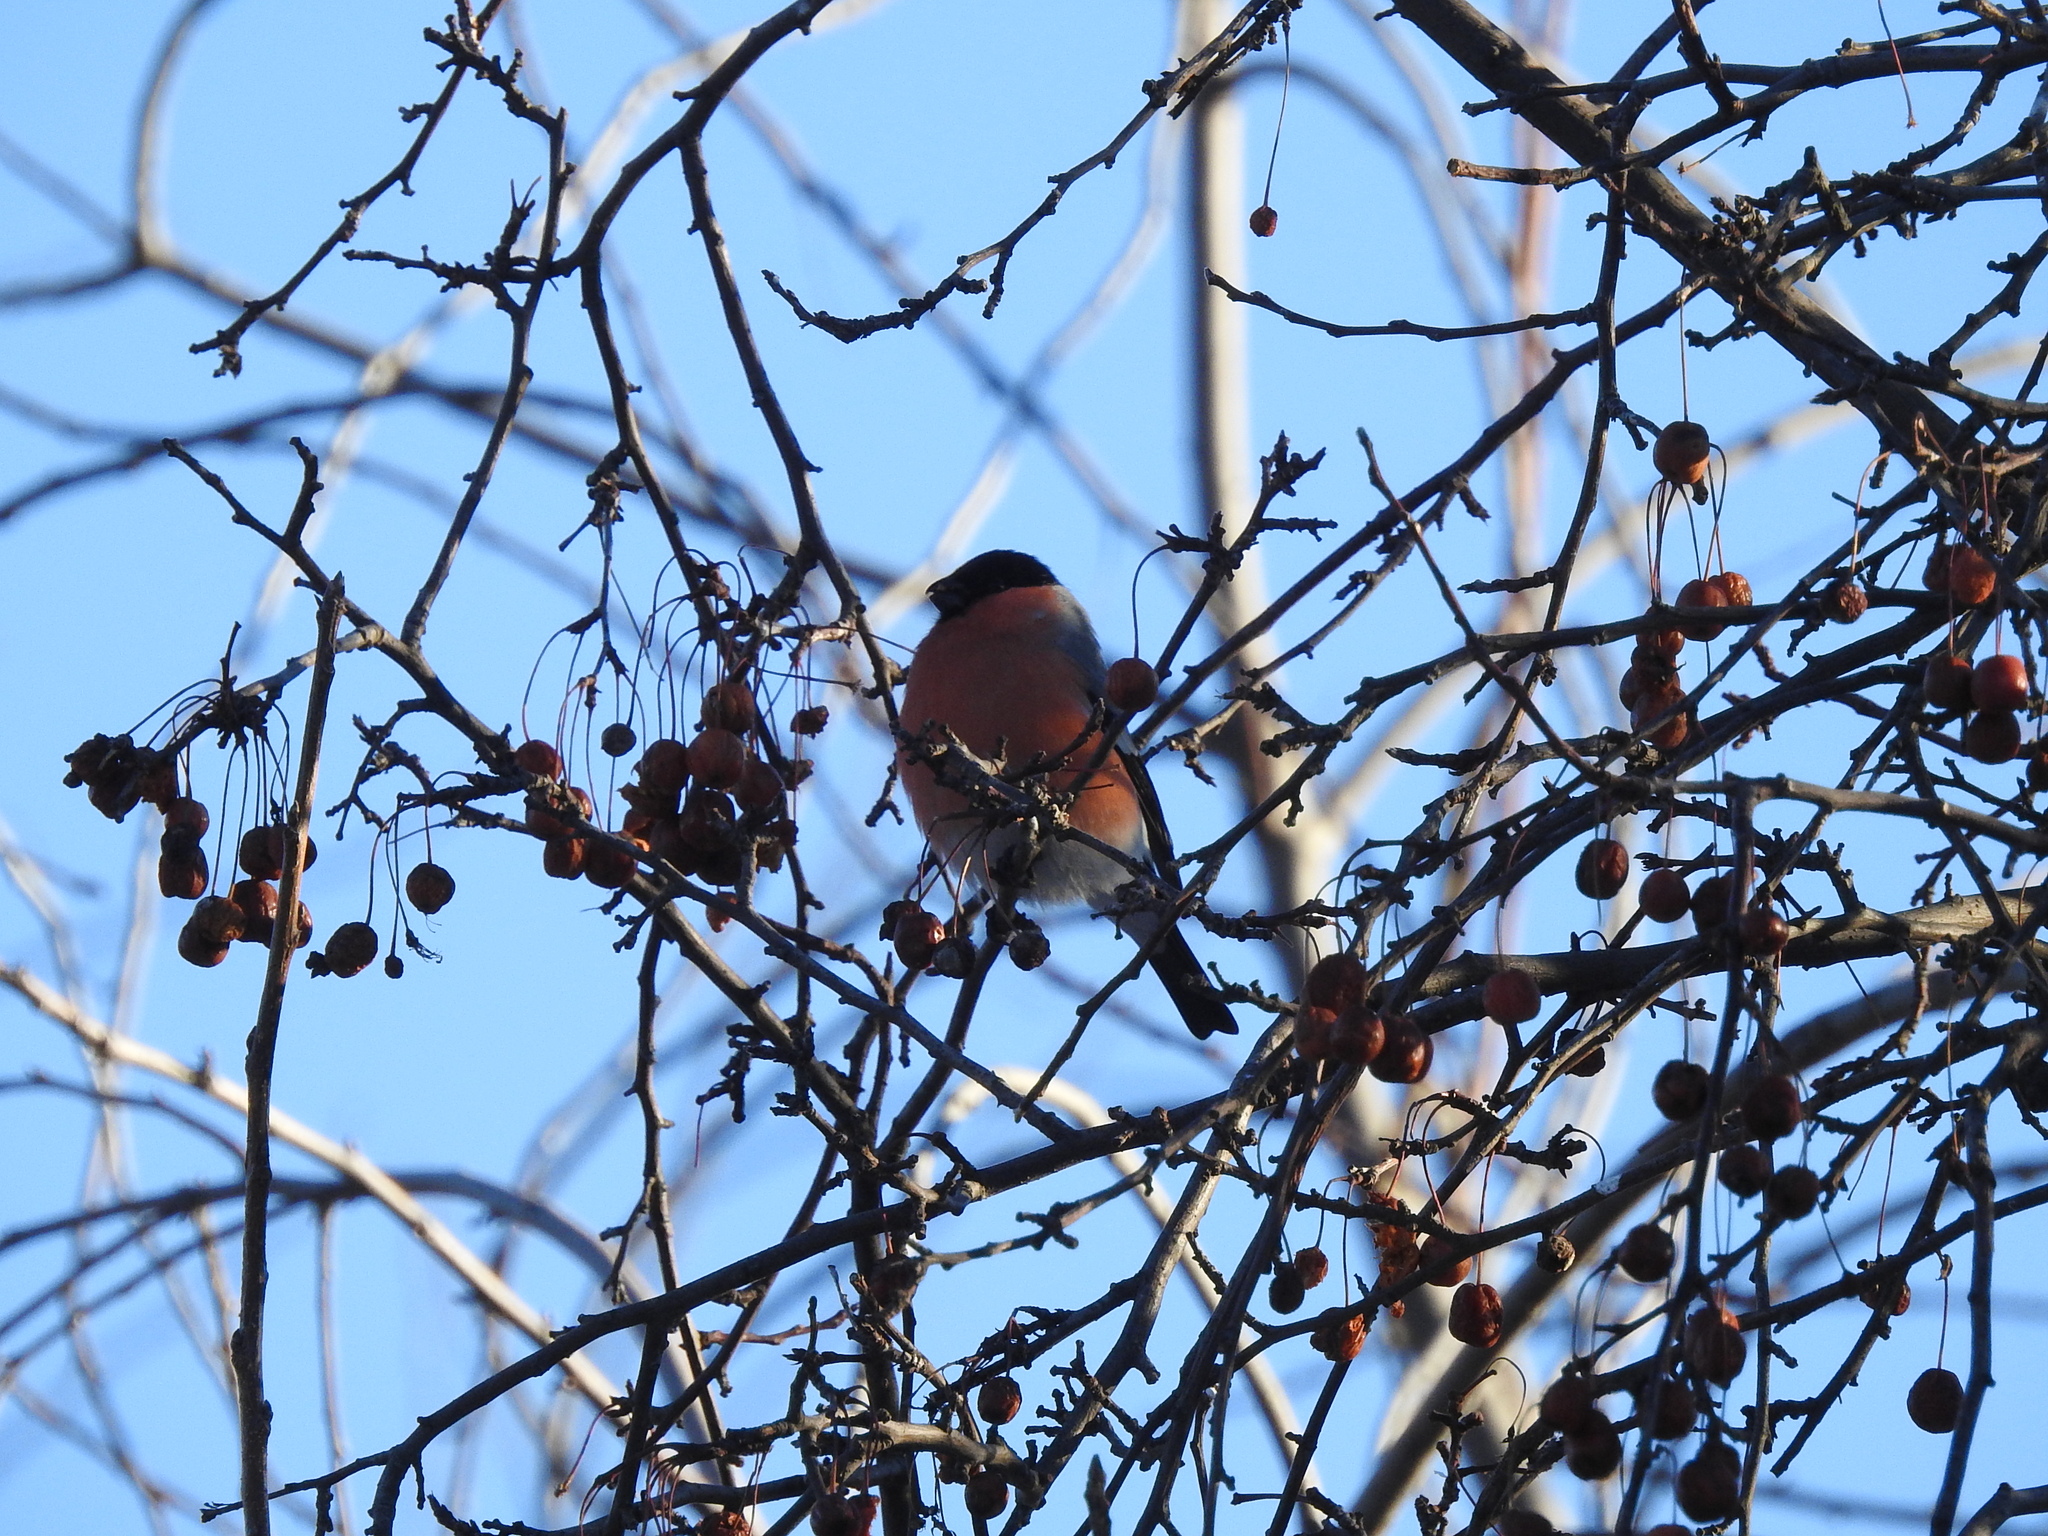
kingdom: Animalia
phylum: Chordata
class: Aves
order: Passeriformes
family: Fringillidae
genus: Pyrrhula
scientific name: Pyrrhula pyrrhula
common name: Eurasian bullfinch
